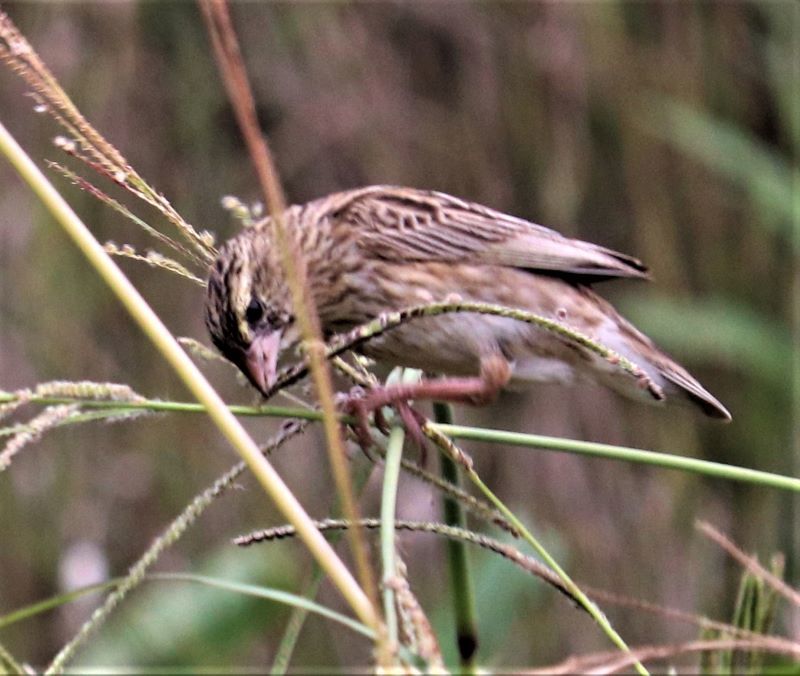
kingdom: Animalia
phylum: Chordata
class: Aves
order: Passeriformes
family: Ploceidae
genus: Euplectes
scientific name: Euplectes orix
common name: Southern red bishop
